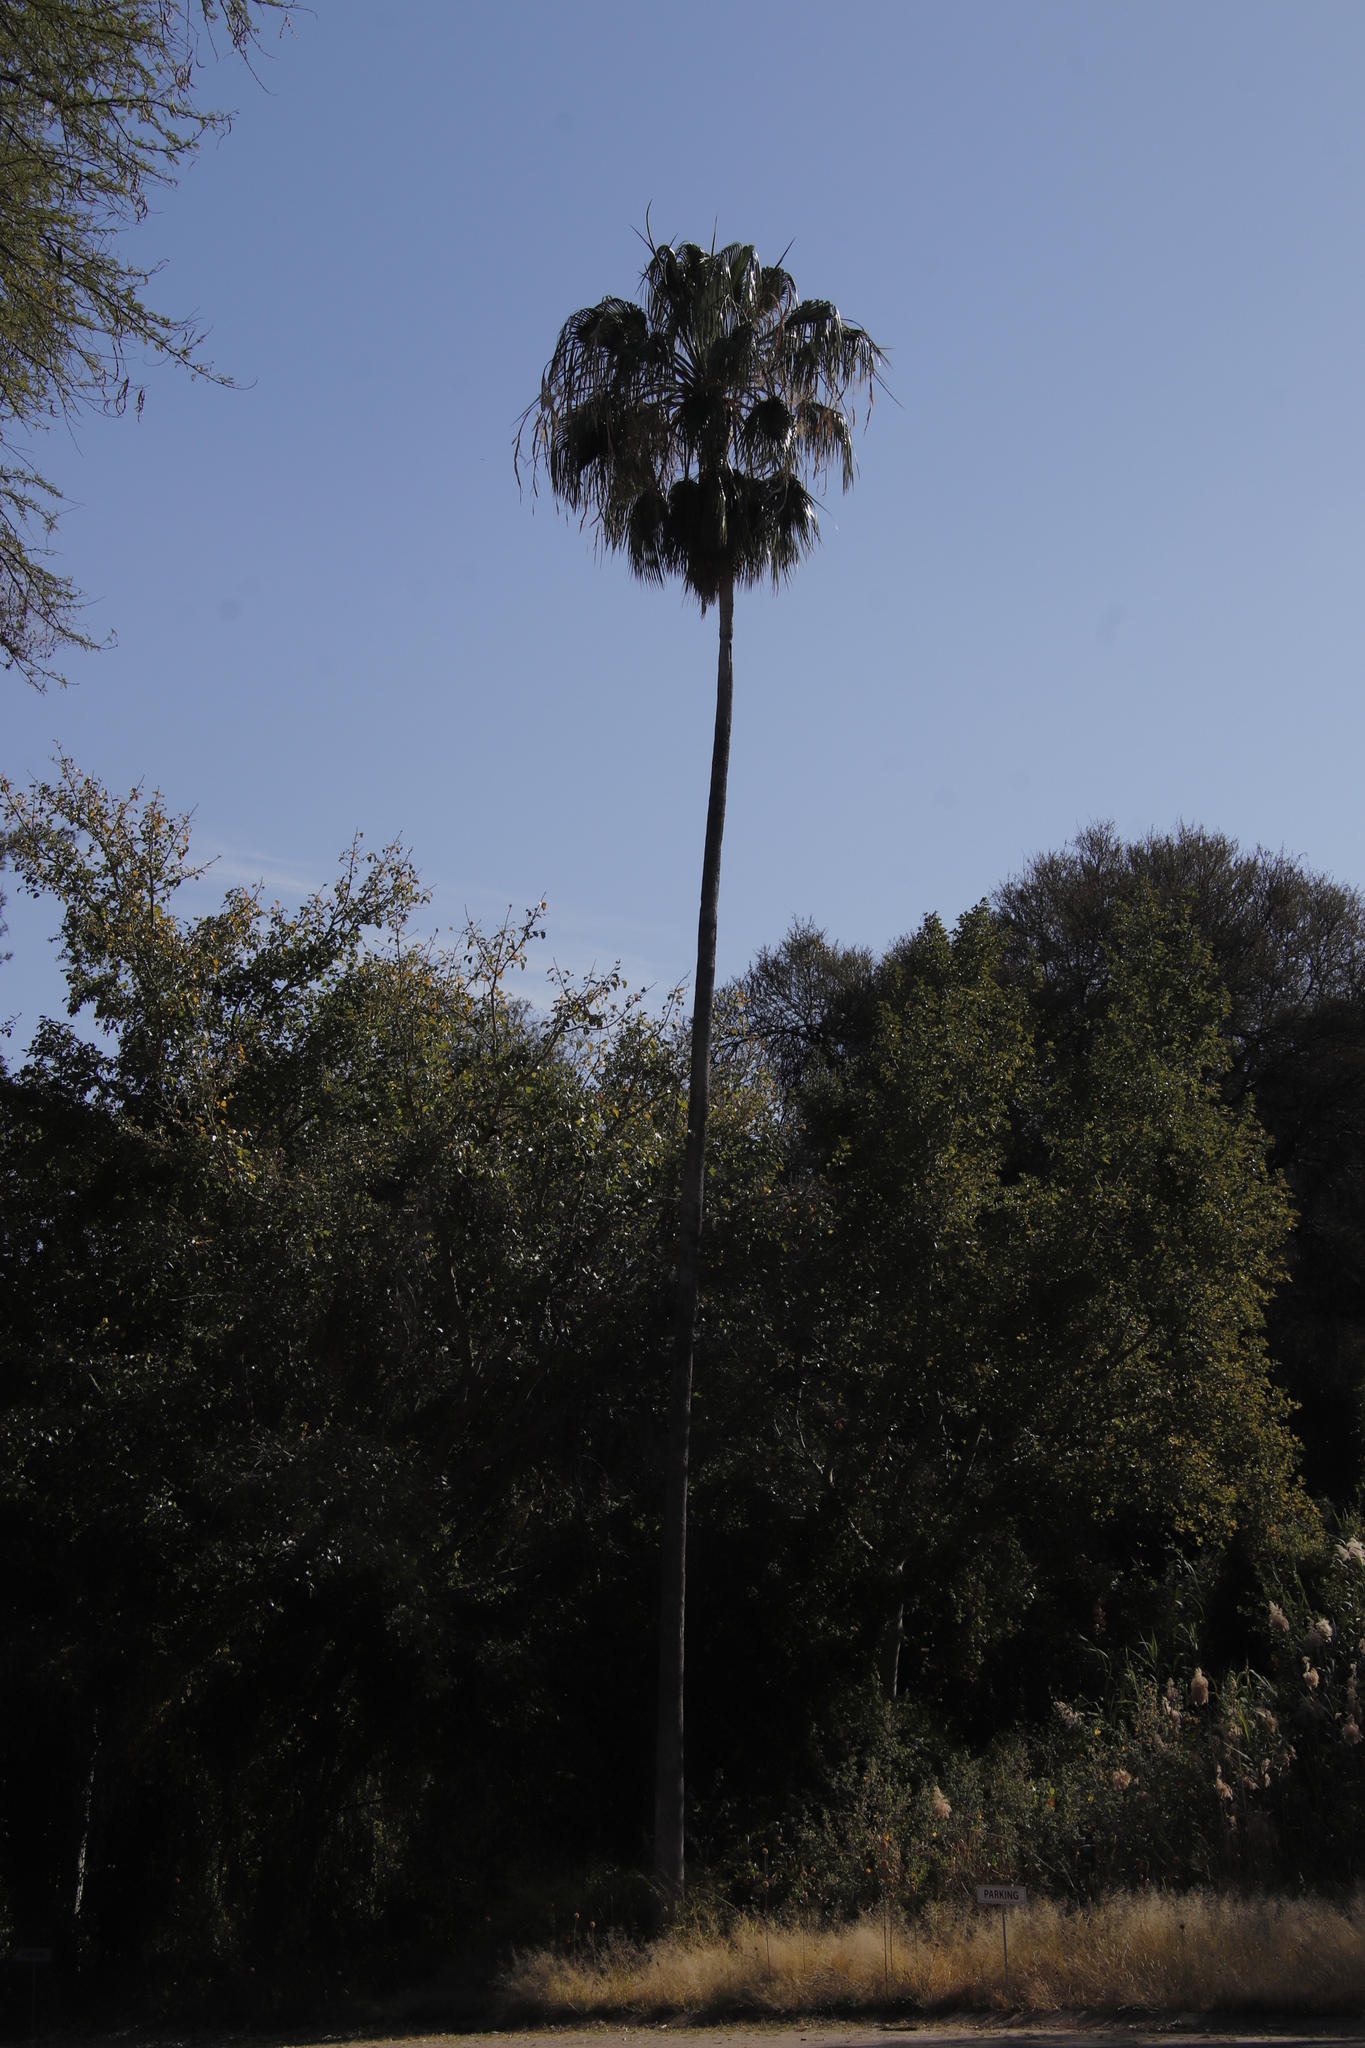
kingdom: Plantae
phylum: Tracheophyta
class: Liliopsida
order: Arecales
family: Arecaceae
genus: Washingtonia
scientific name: Washingtonia robusta
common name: Mexican fan palm
